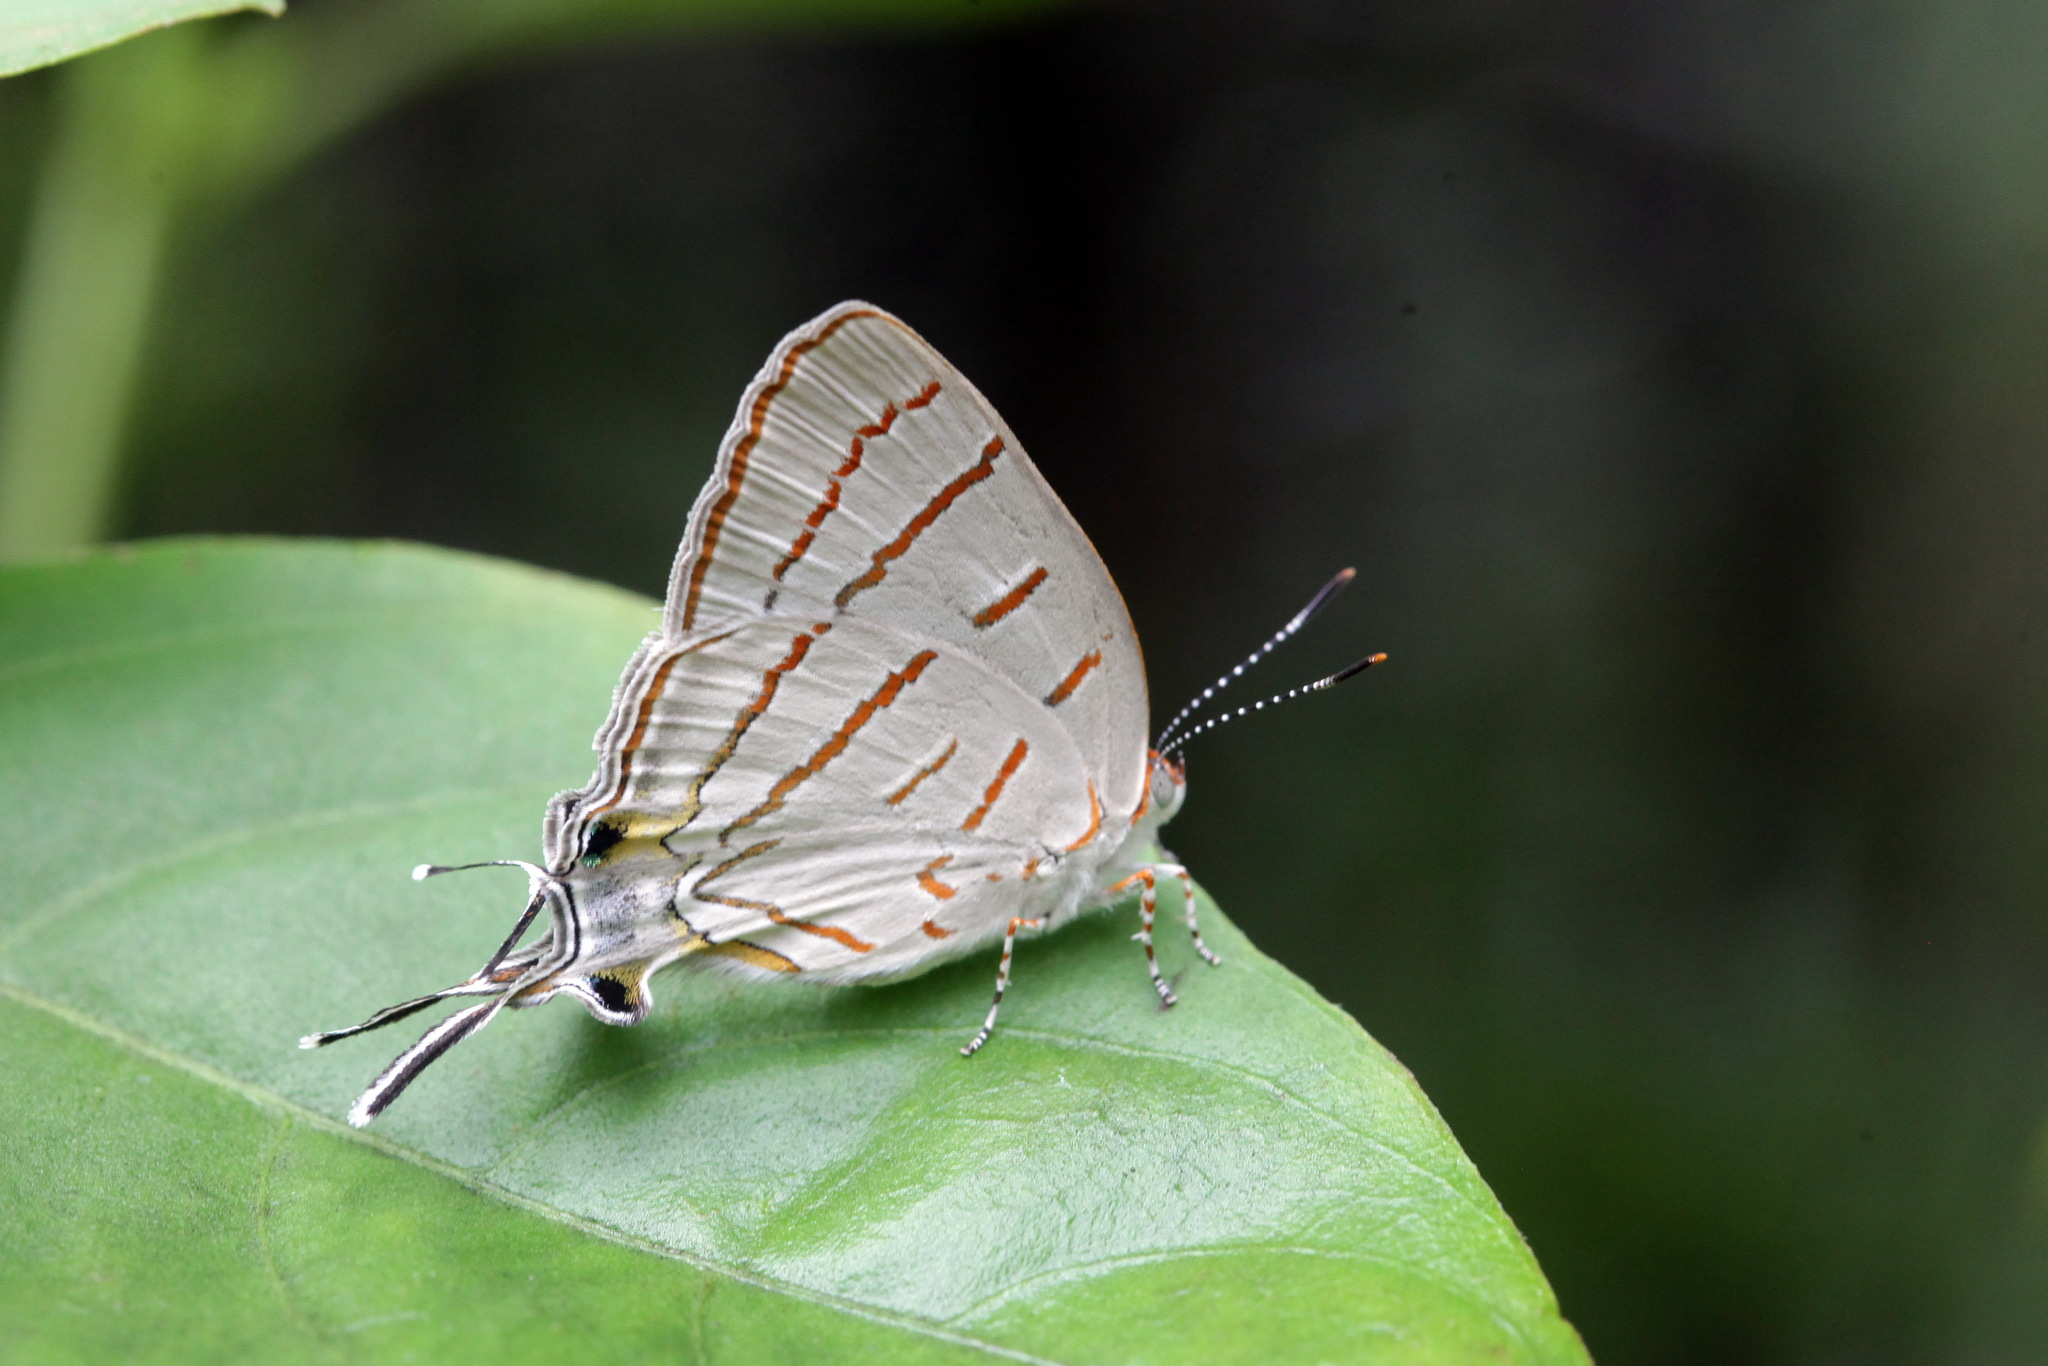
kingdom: Animalia
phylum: Arthropoda
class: Insecta
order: Lepidoptera
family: Lycaenidae
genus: Hemiolaus
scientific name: Hemiolaus caeculus
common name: Azure hairstreak
